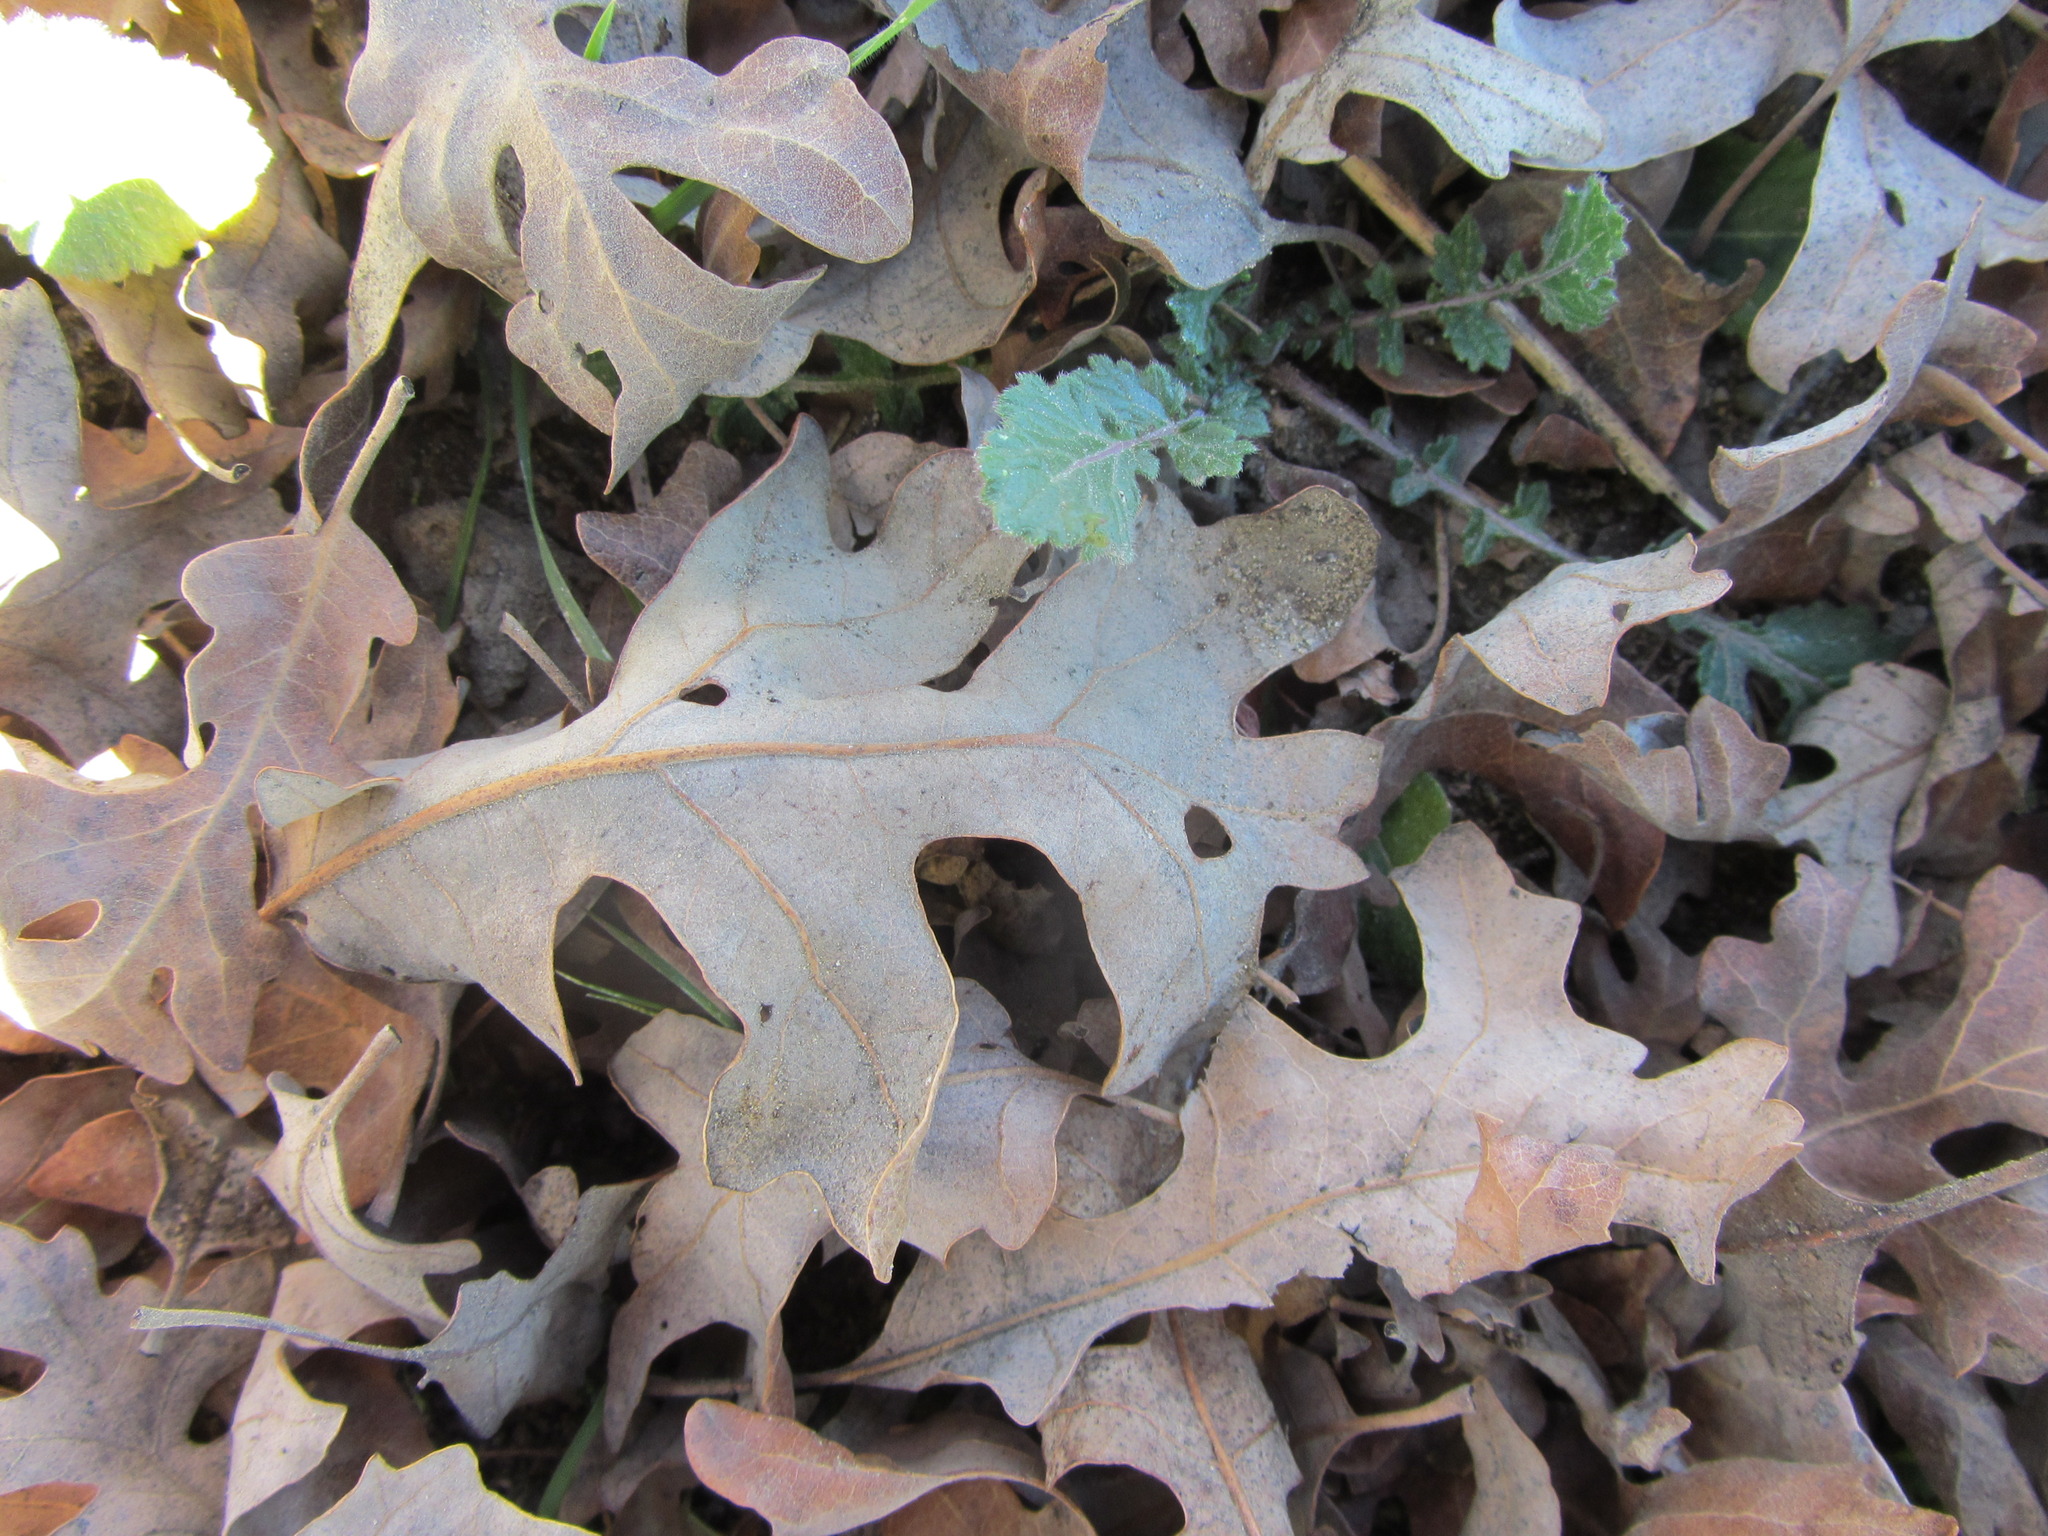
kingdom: Plantae
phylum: Tracheophyta
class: Magnoliopsida
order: Fagales
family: Fagaceae
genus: Quercus
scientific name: Quercus lobata
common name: Valley oak
